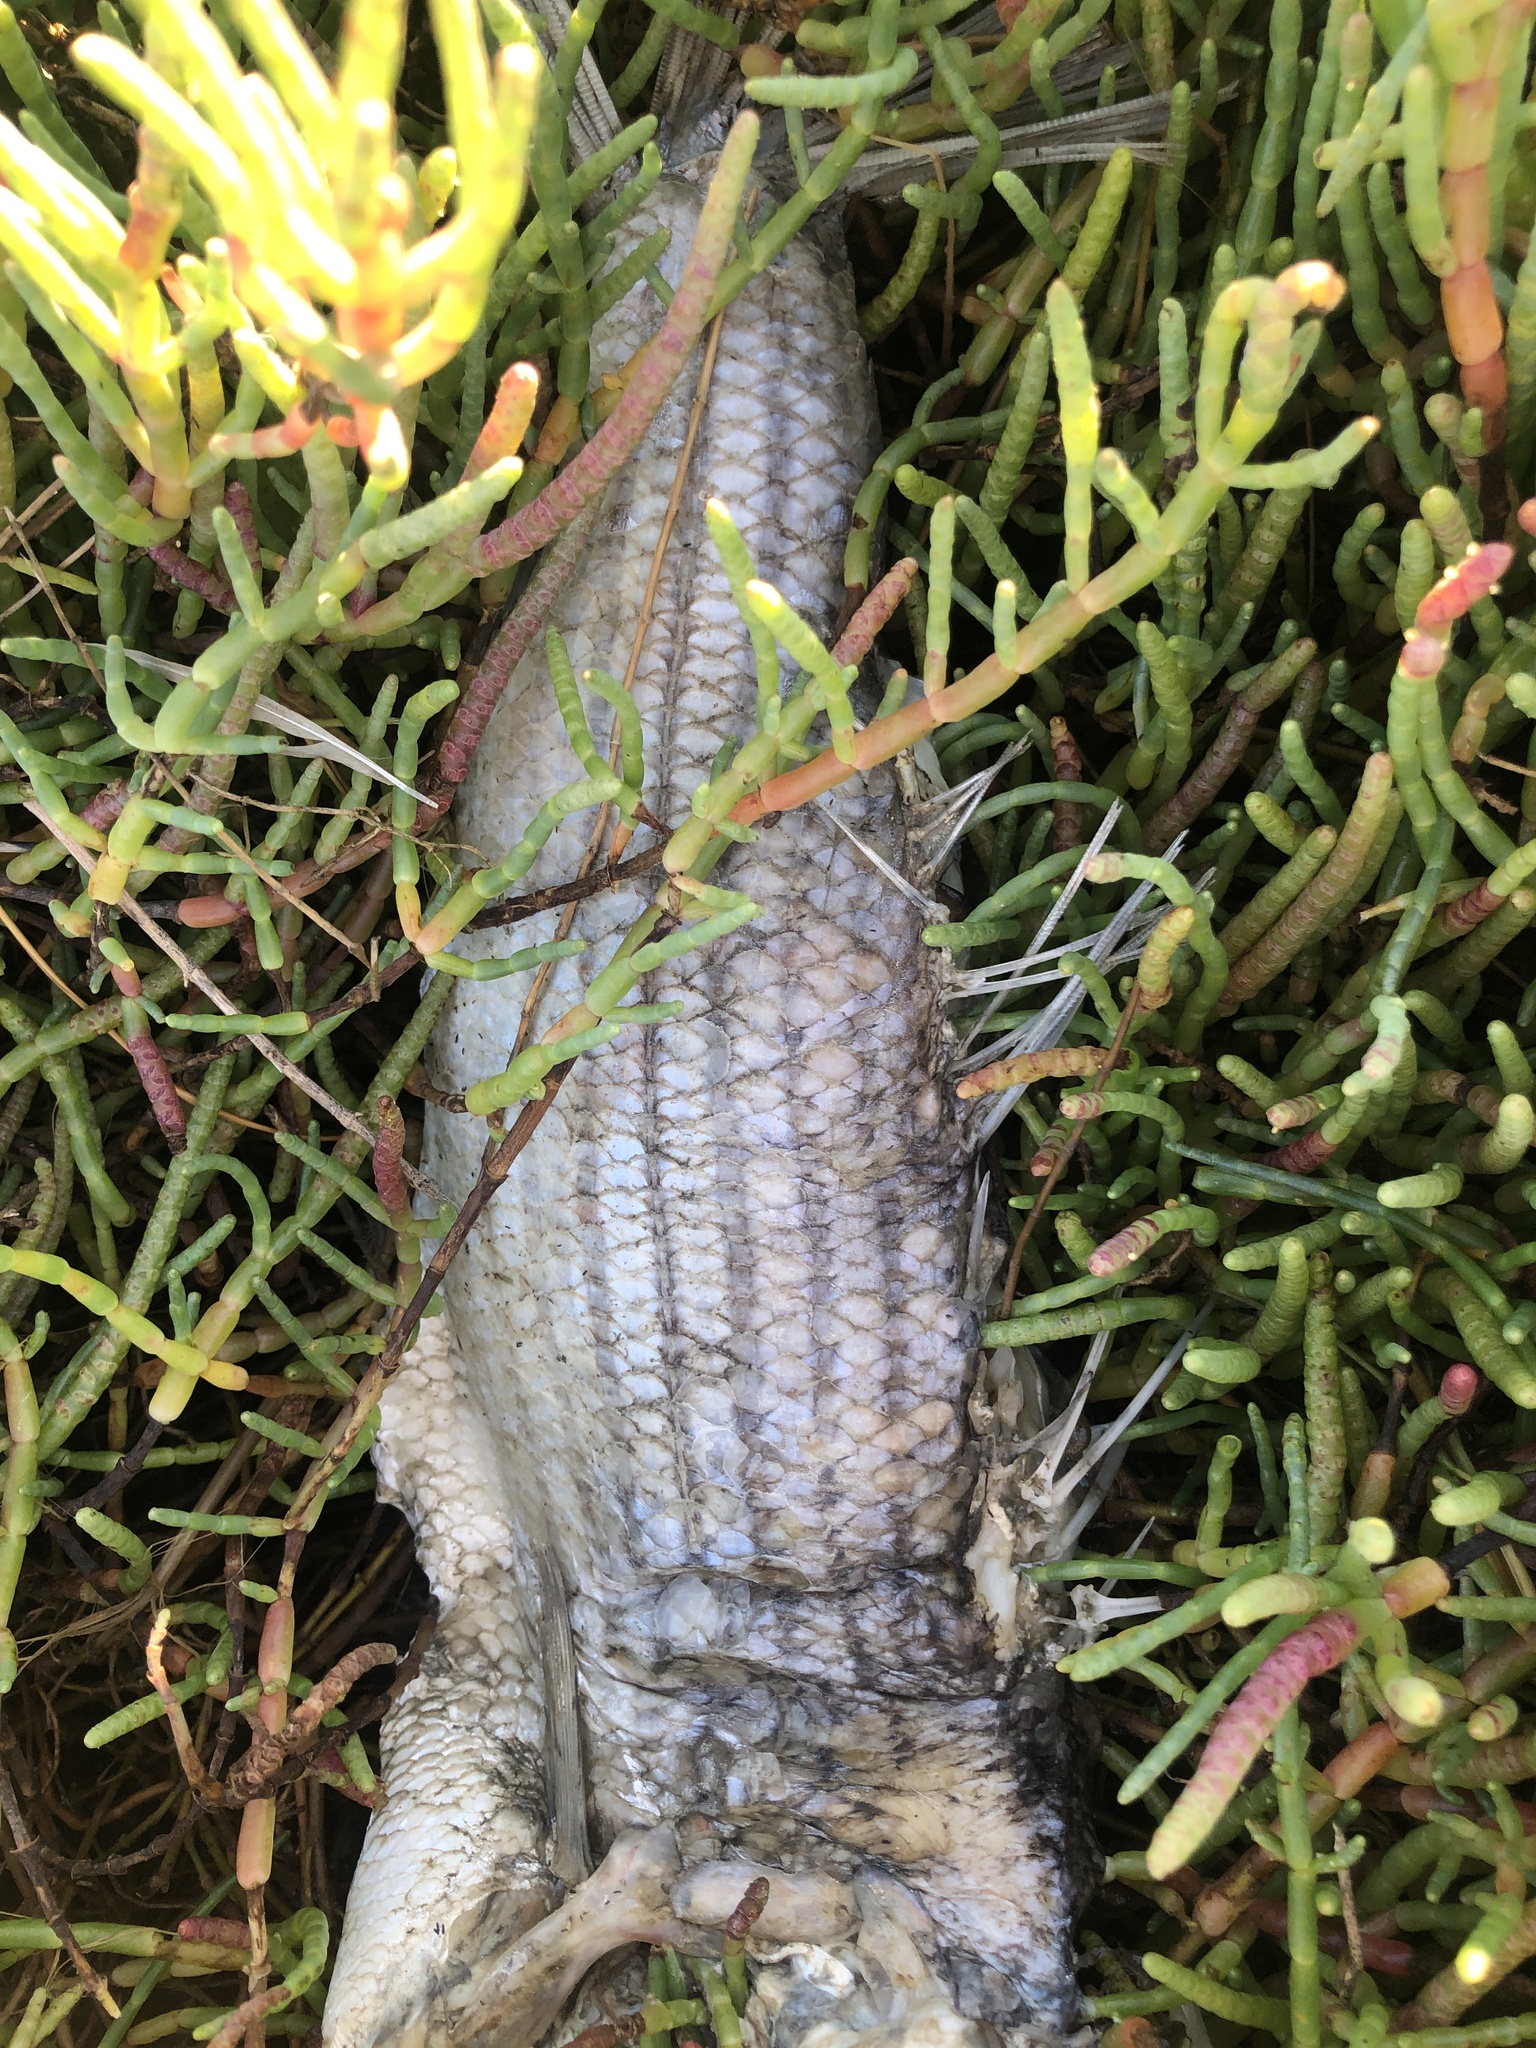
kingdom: Animalia
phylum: Chordata
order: Perciformes
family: Moronidae
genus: Morone
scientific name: Morone saxatilis
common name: Striped bass
